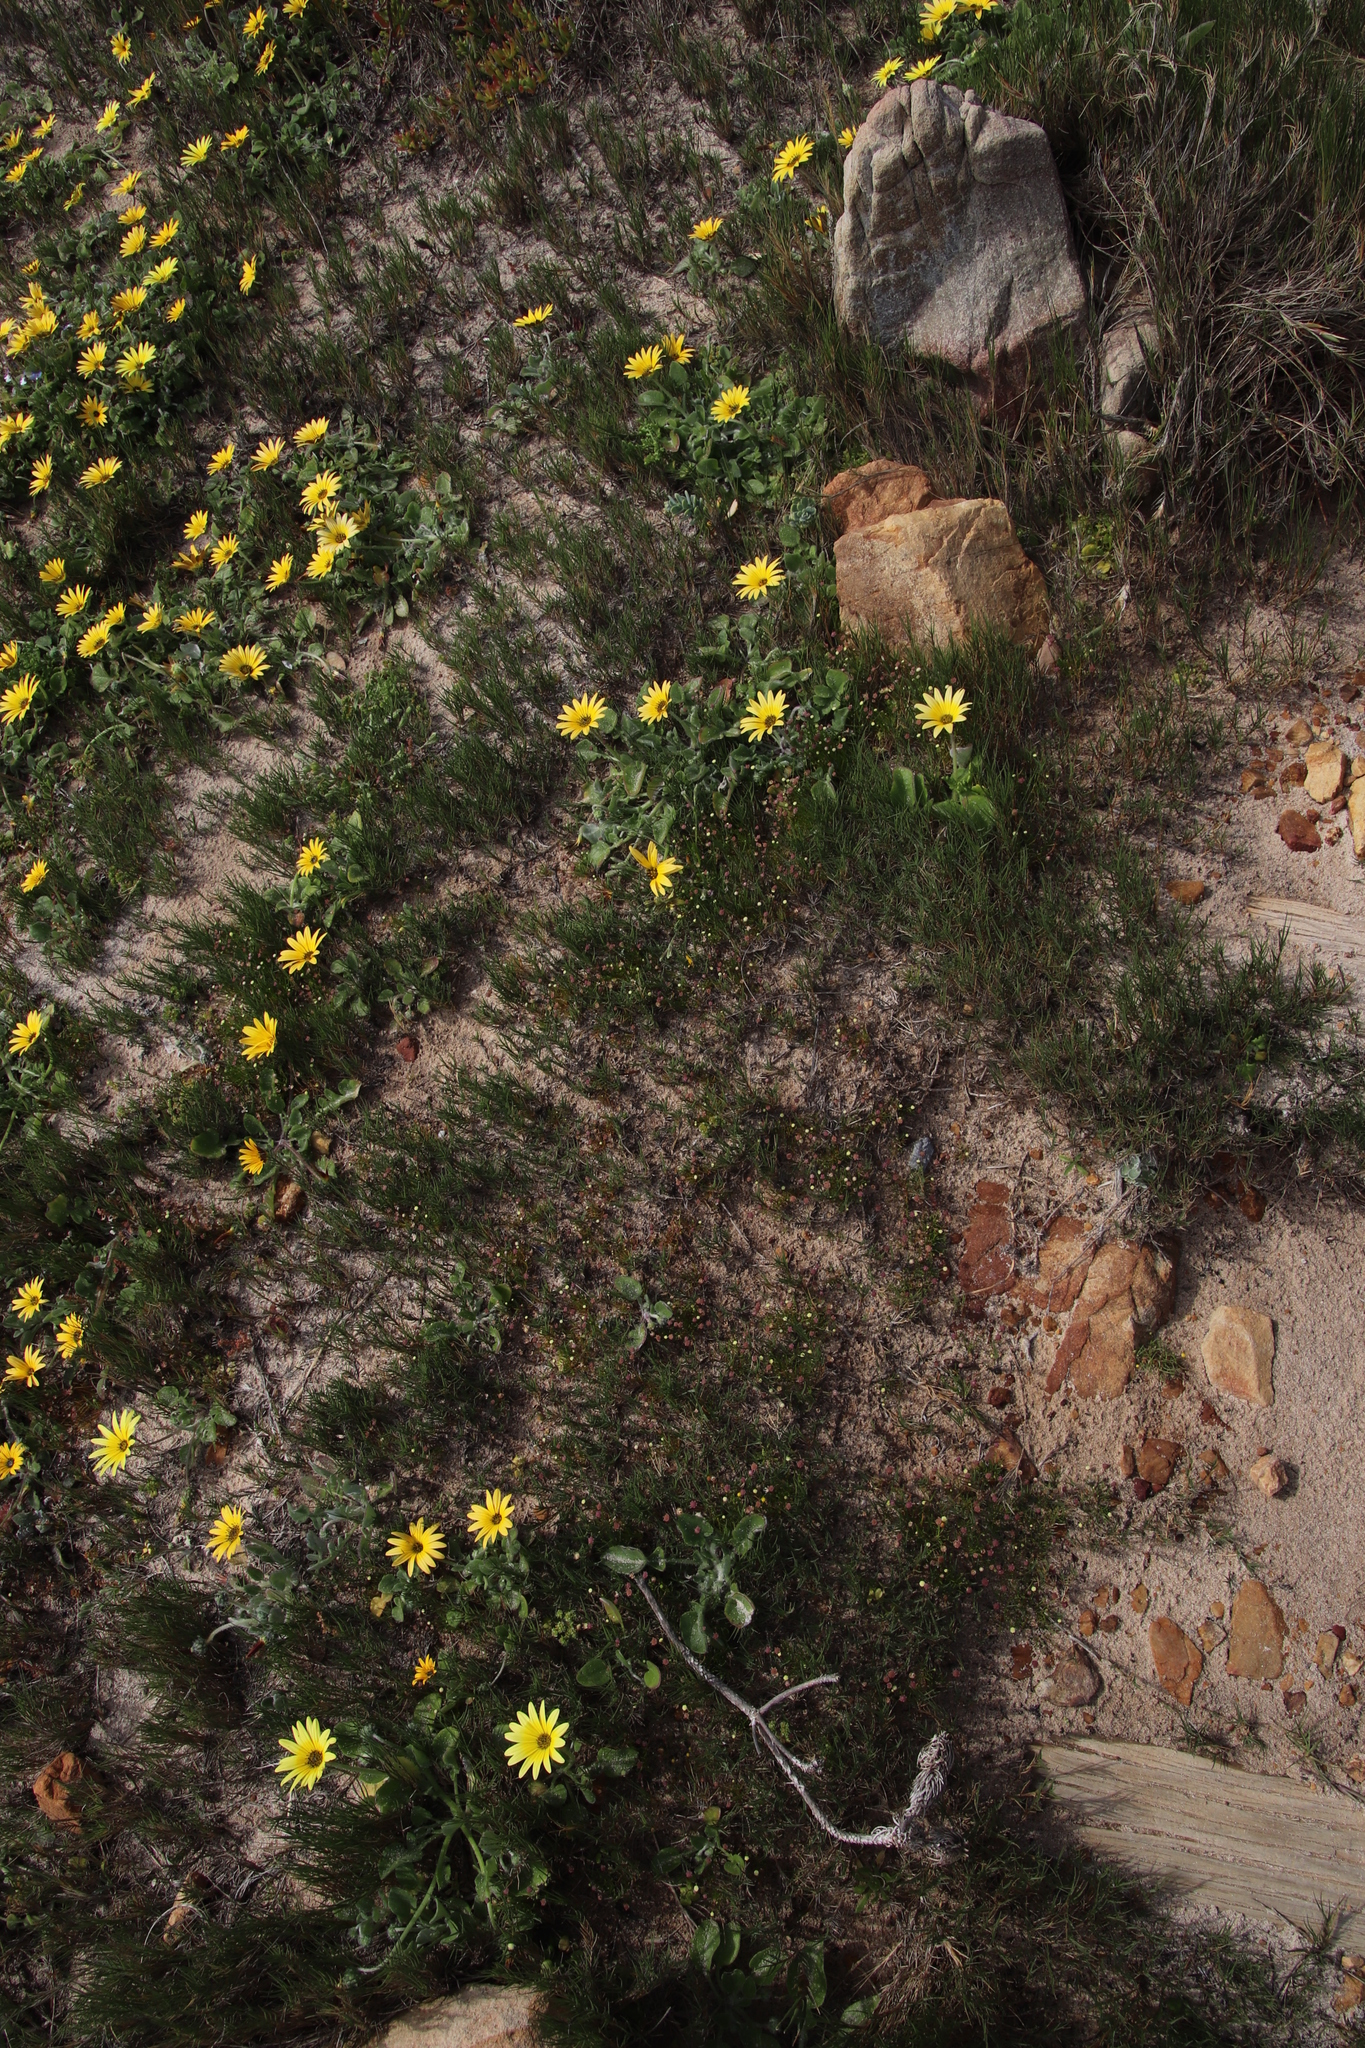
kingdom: Plantae
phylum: Tracheophyta
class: Magnoliopsida
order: Asterales
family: Asteraceae
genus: Arctotheca
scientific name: Arctotheca calendula
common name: Capeweed
